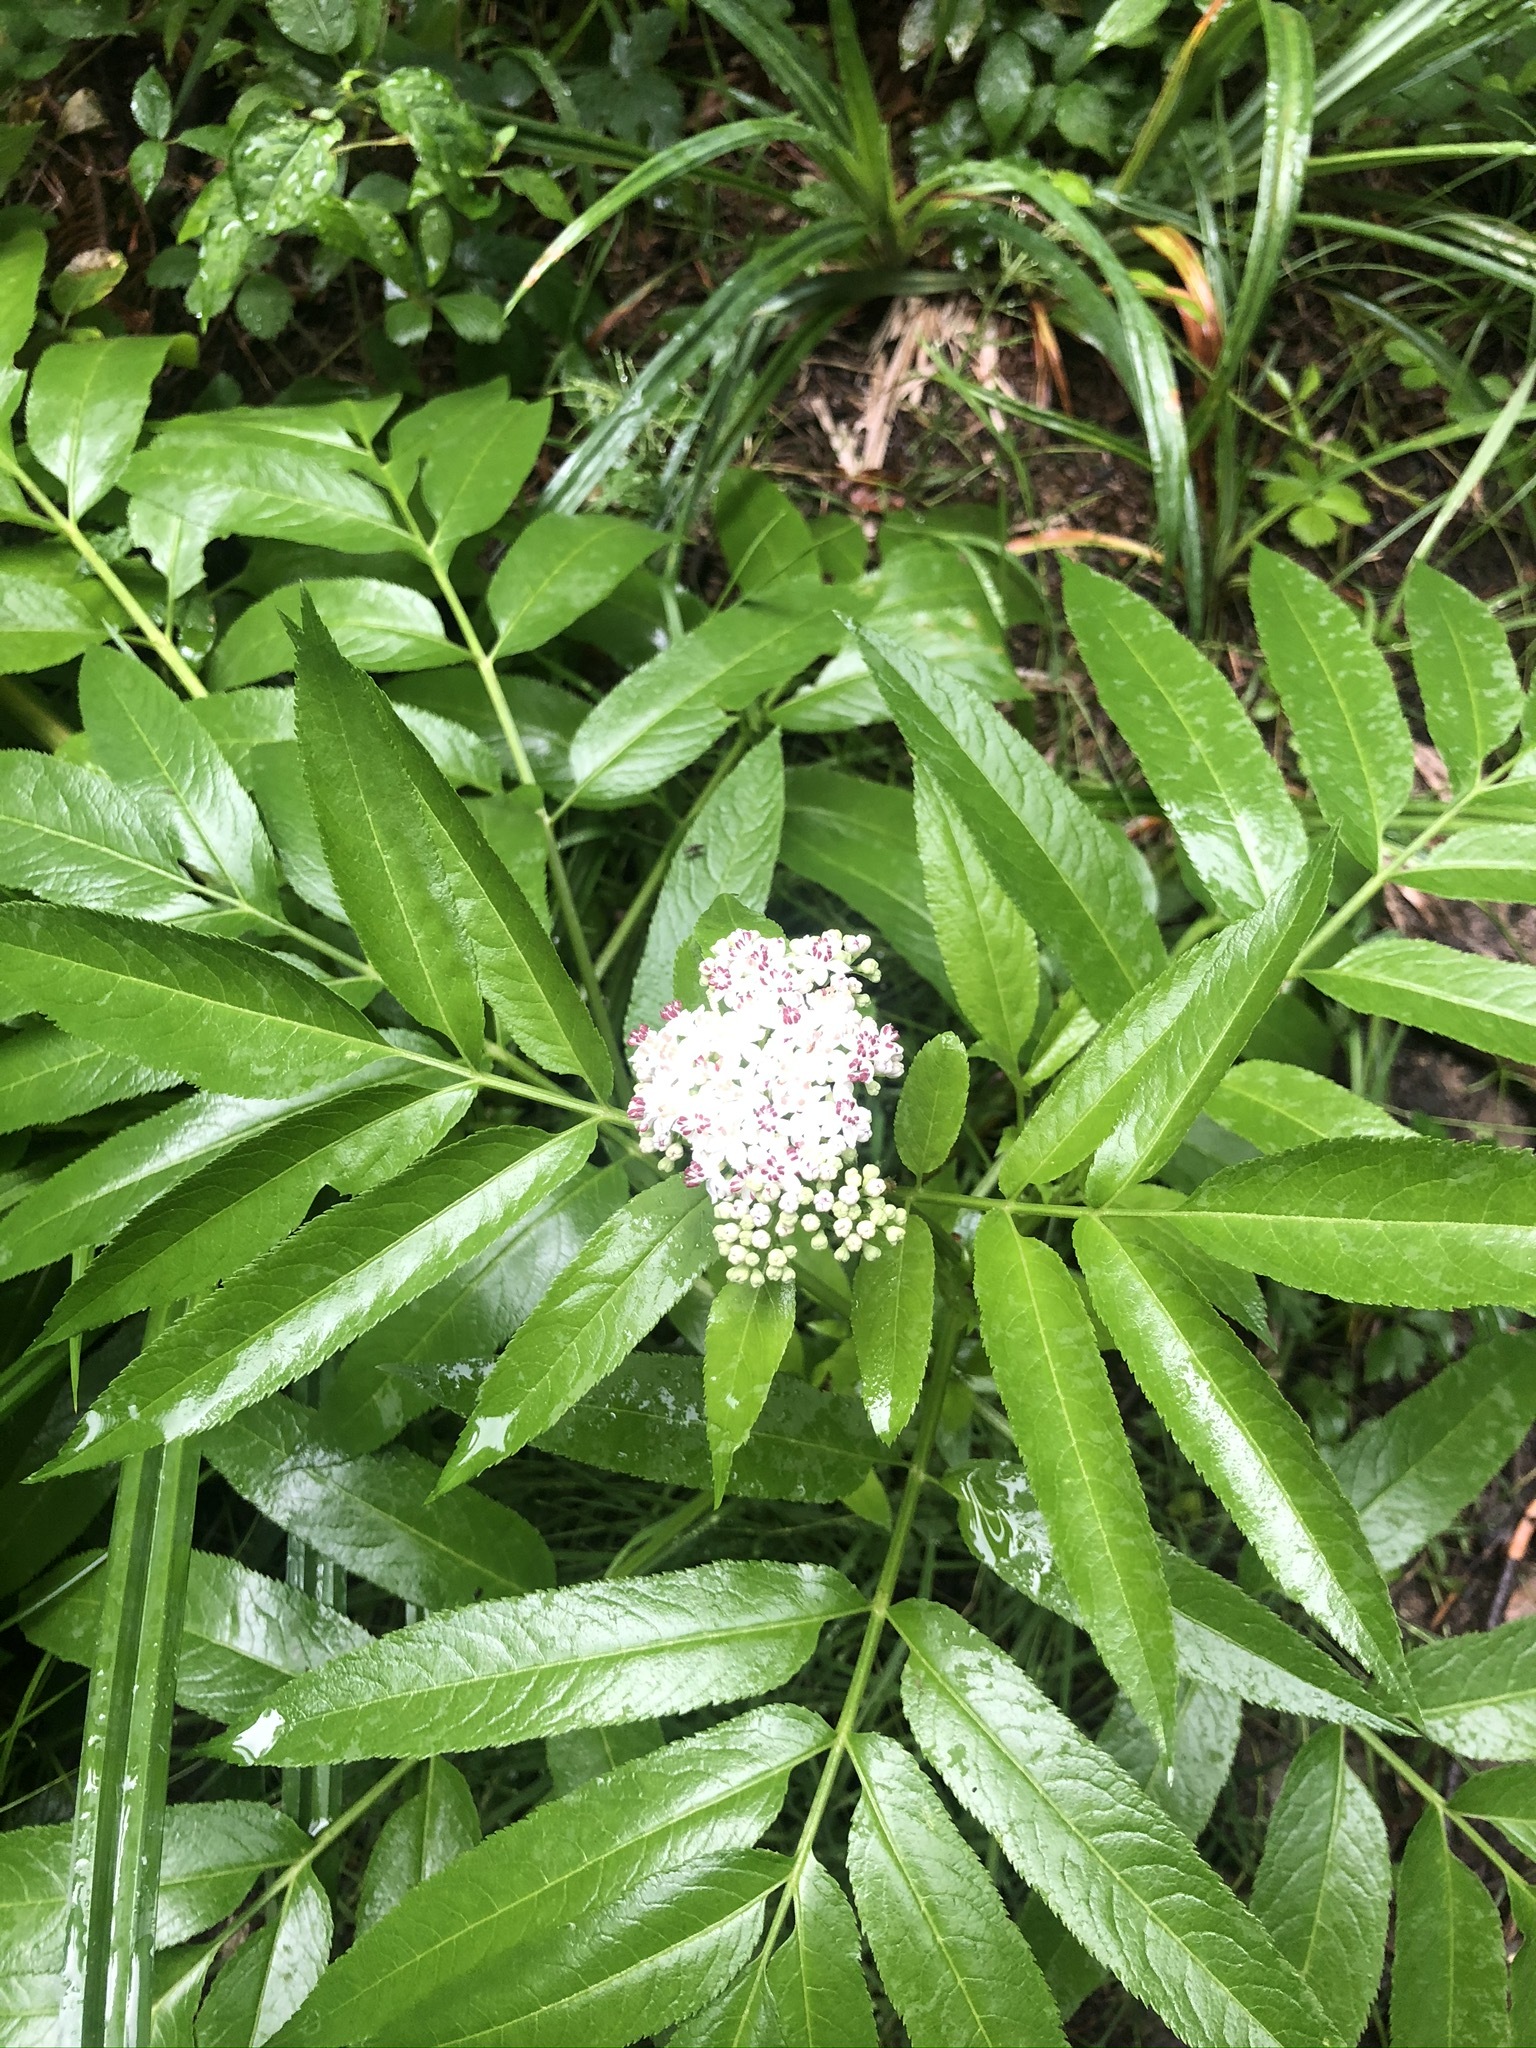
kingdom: Plantae
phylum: Tracheophyta
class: Magnoliopsida
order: Dipsacales
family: Viburnaceae
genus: Sambucus
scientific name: Sambucus ebulus
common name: Dwarf elder
